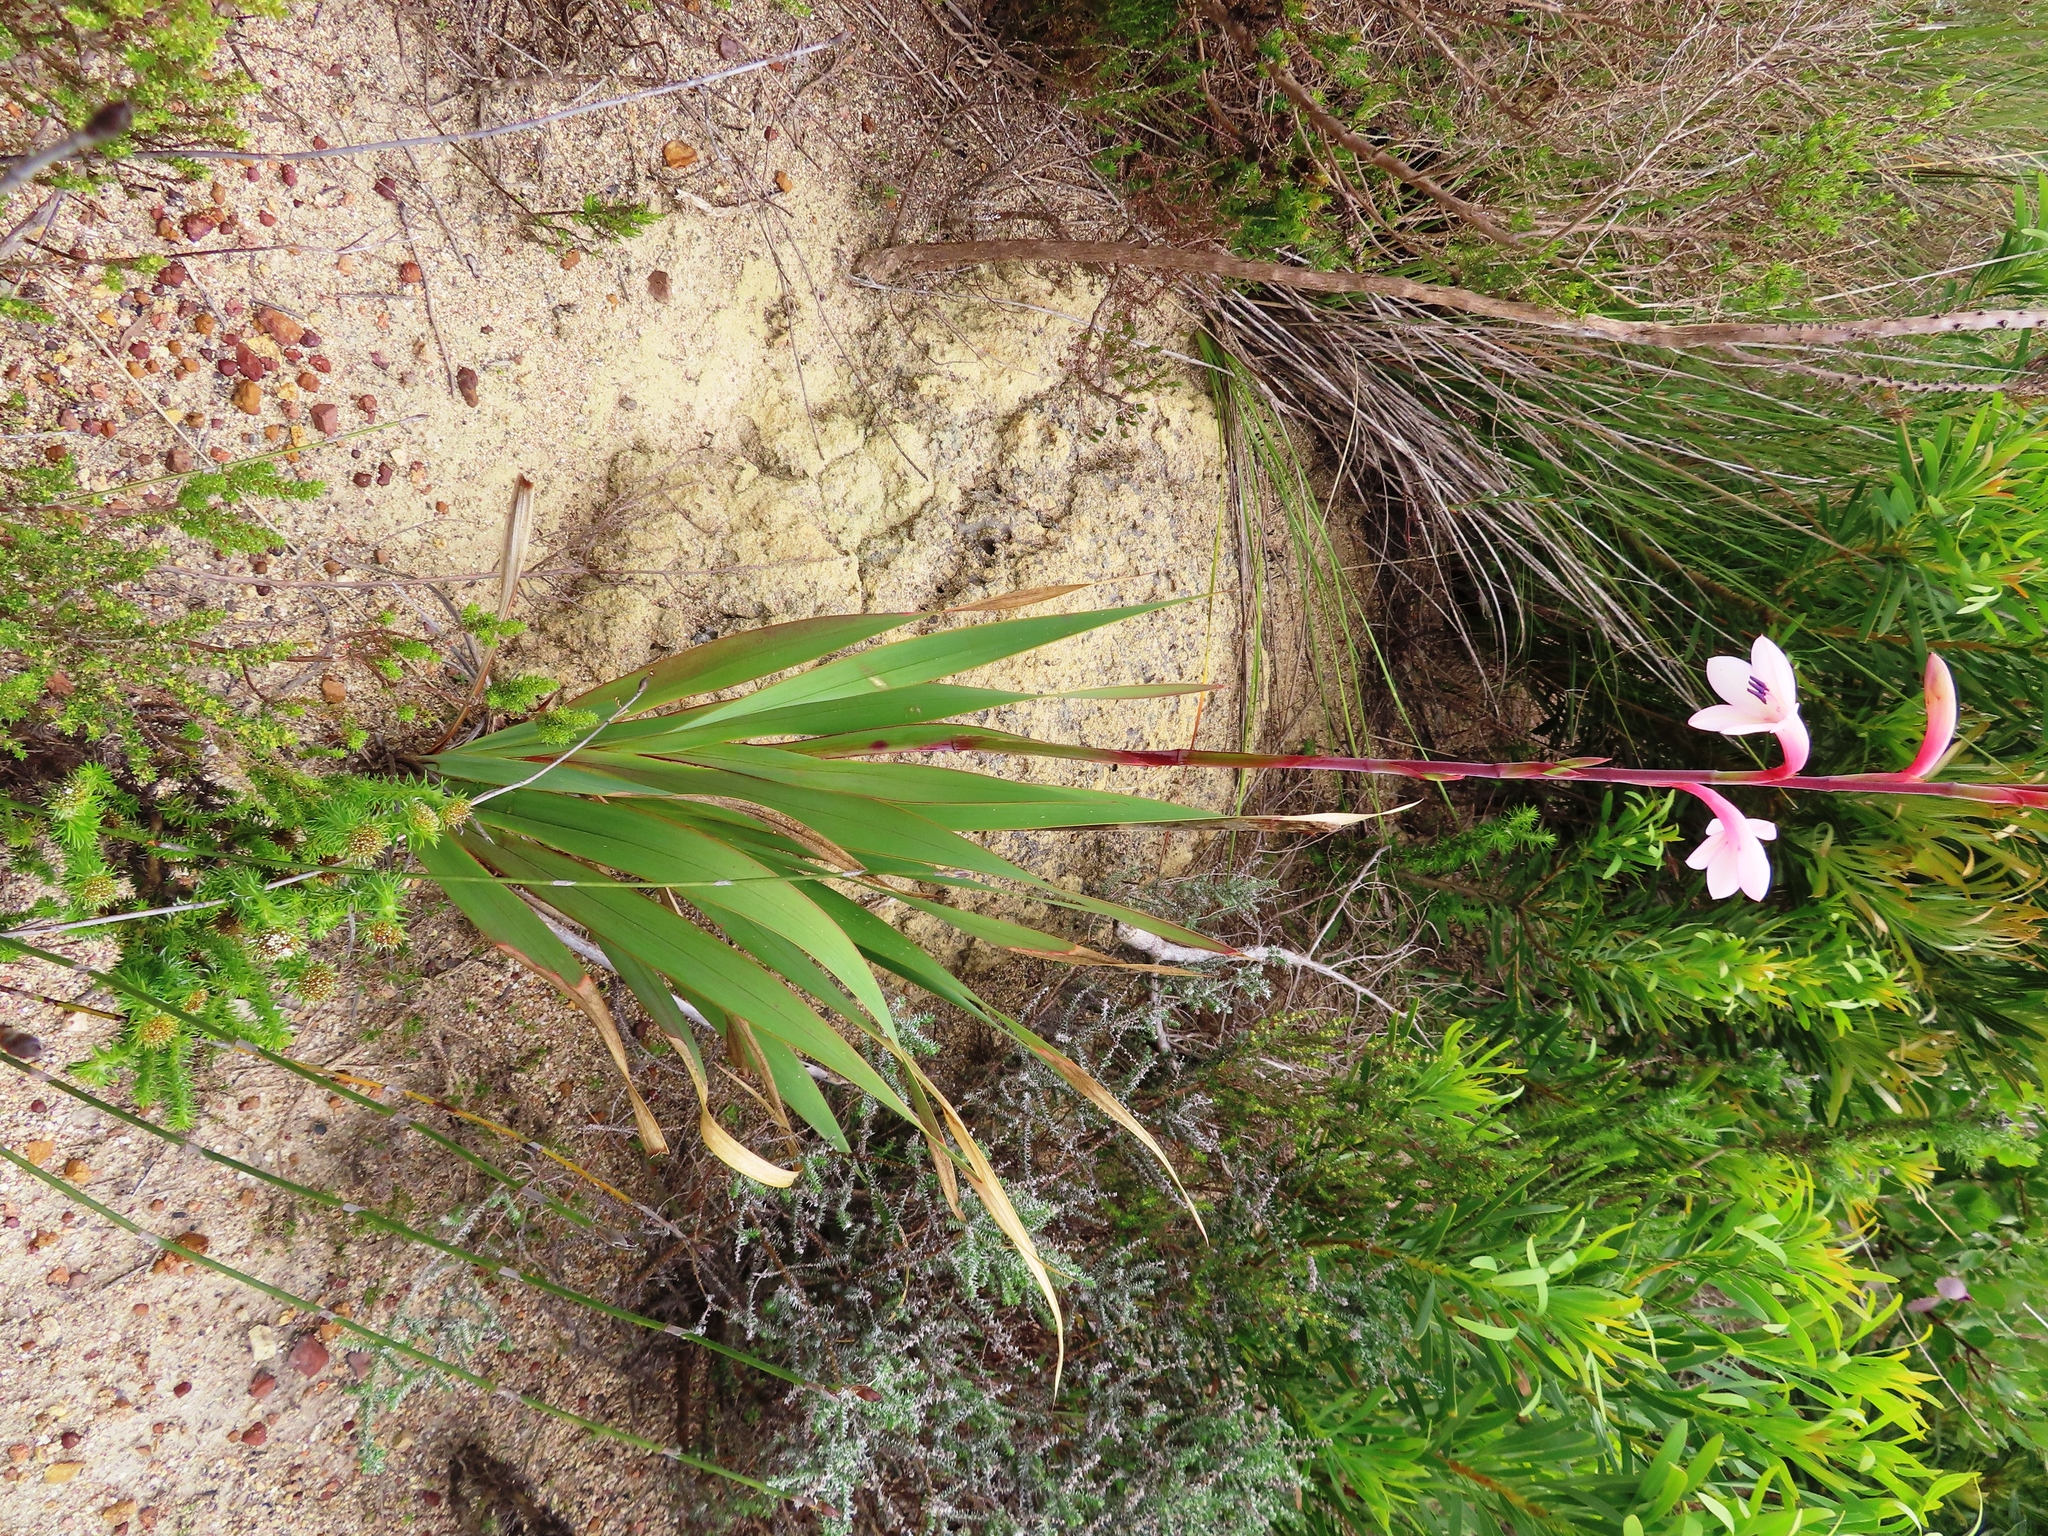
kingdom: Plantae
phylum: Tracheophyta
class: Liliopsida
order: Asparagales
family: Iridaceae
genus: Watsonia
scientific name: Watsonia meriana
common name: Bulbil bugle-lily
